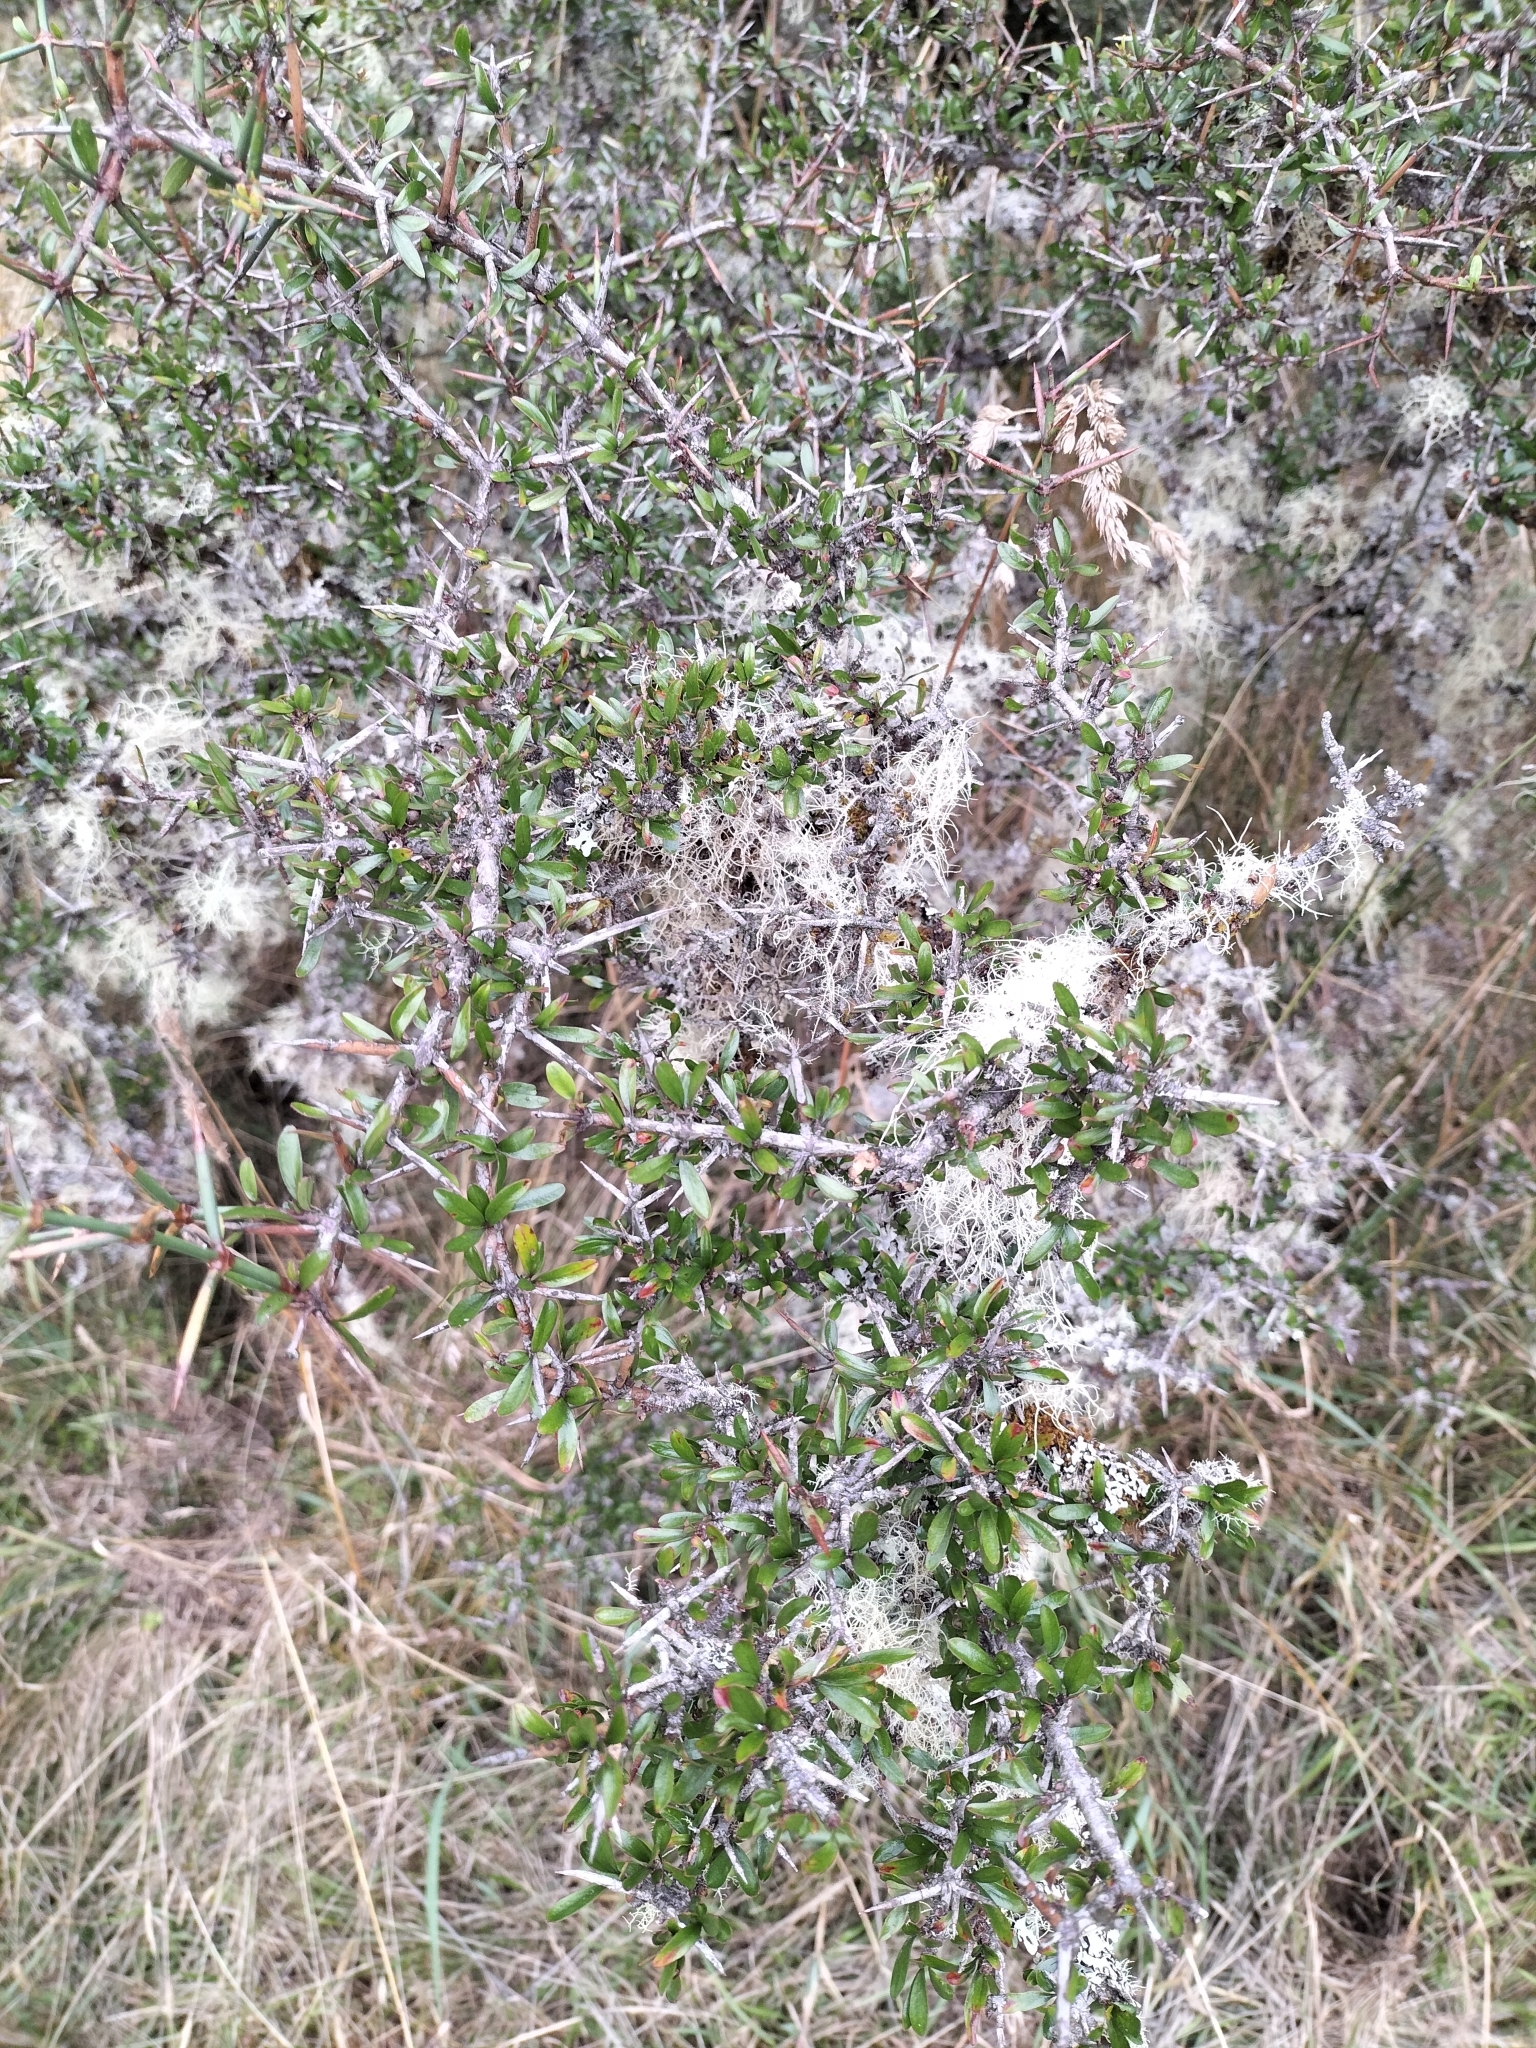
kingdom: Plantae
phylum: Tracheophyta
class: Magnoliopsida
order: Rosales
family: Rhamnaceae
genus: Discaria
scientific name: Discaria toumatou
